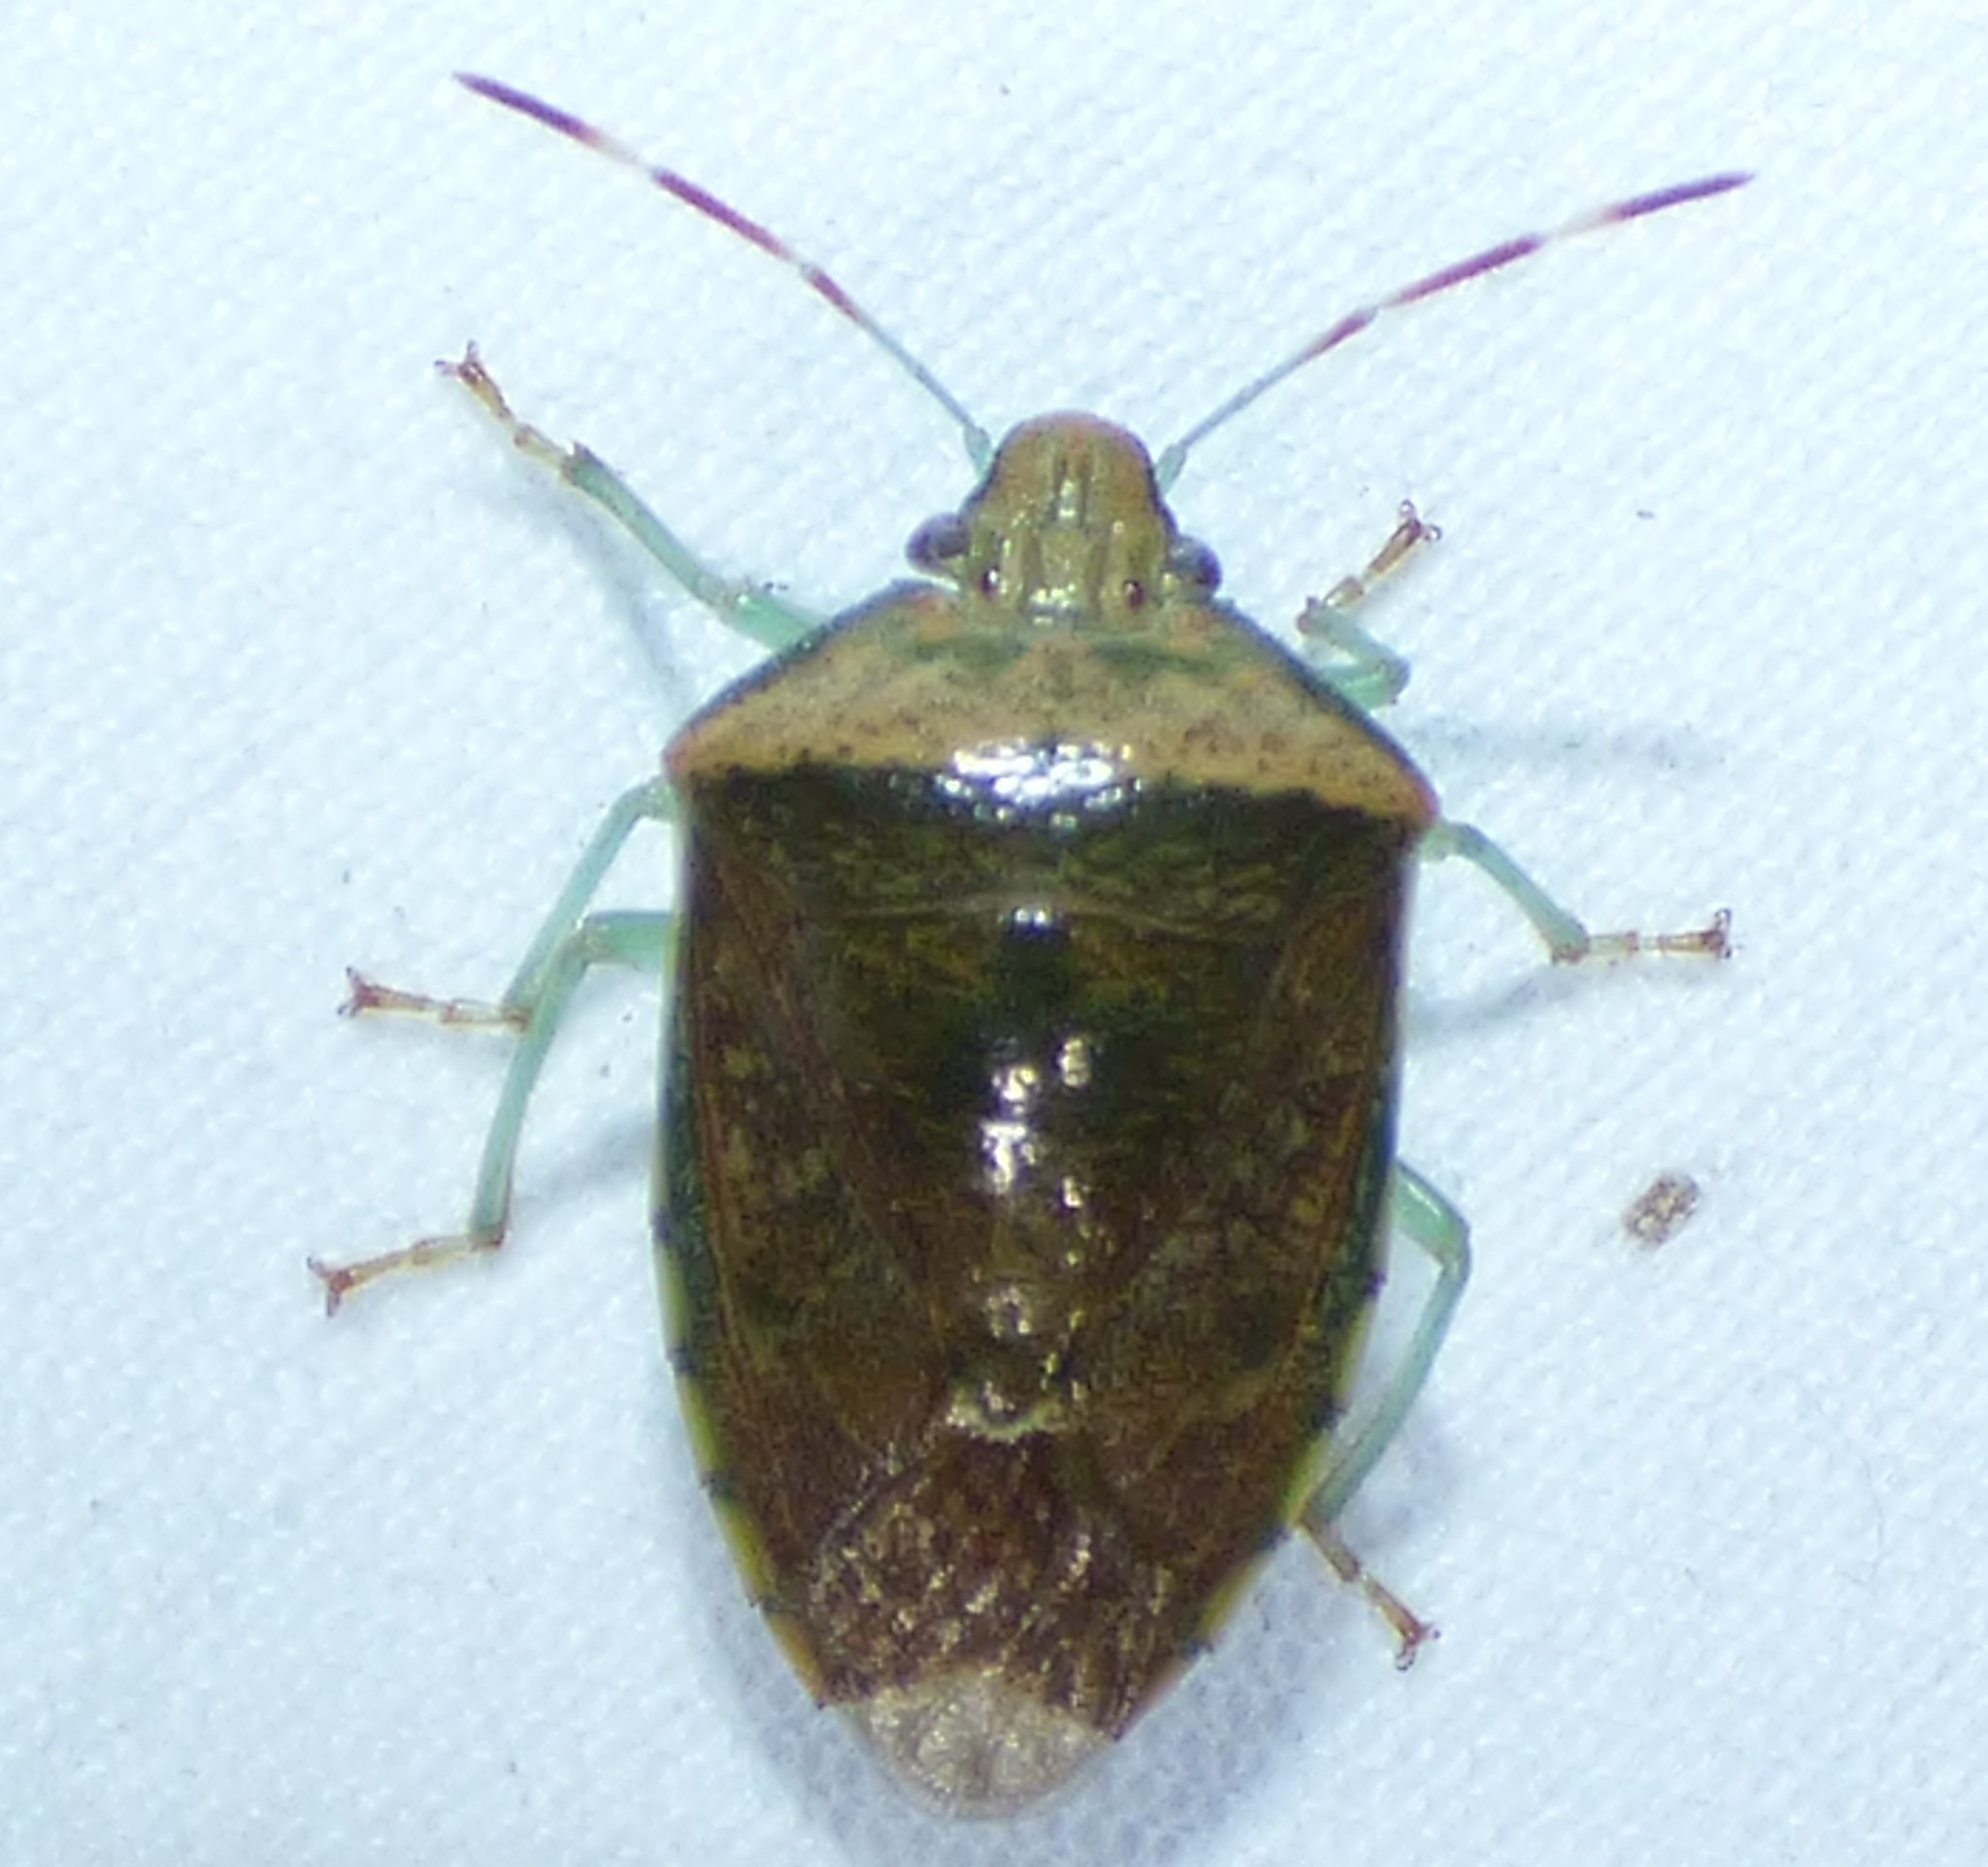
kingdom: Animalia
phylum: Arthropoda
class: Insecta
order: Hemiptera
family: Pentatomidae
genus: Banasa
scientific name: Banasa calva
